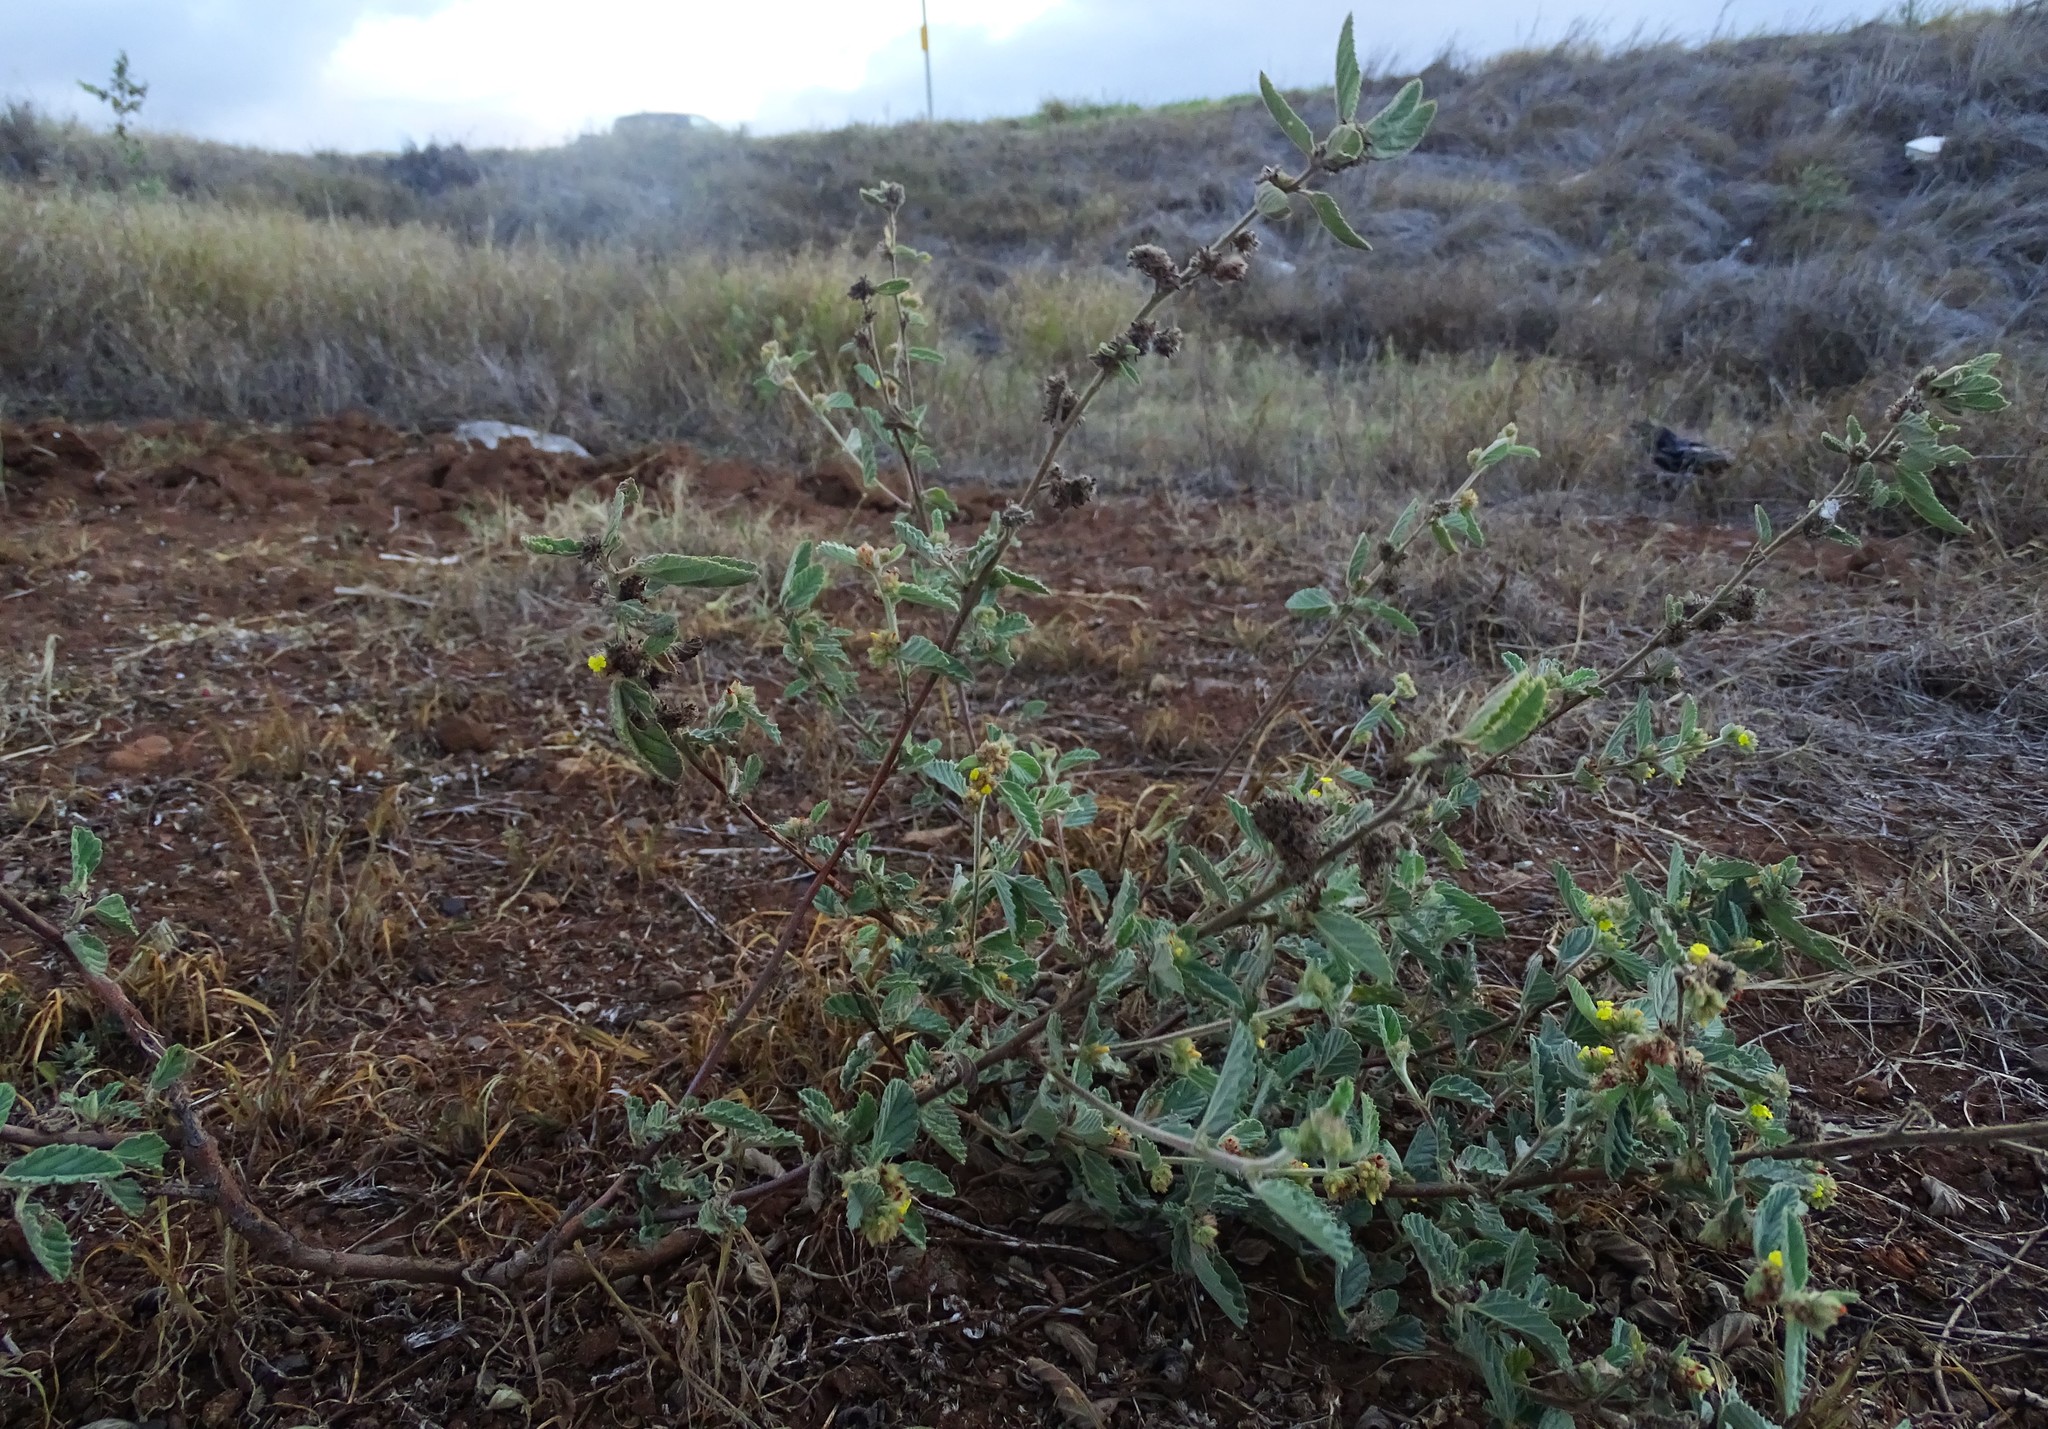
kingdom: Plantae
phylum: Tracheophyta
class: Magnoliopsida
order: Malvales
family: Malvaceae
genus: Waltheria
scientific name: Waltheria indica
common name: Leather-coat
